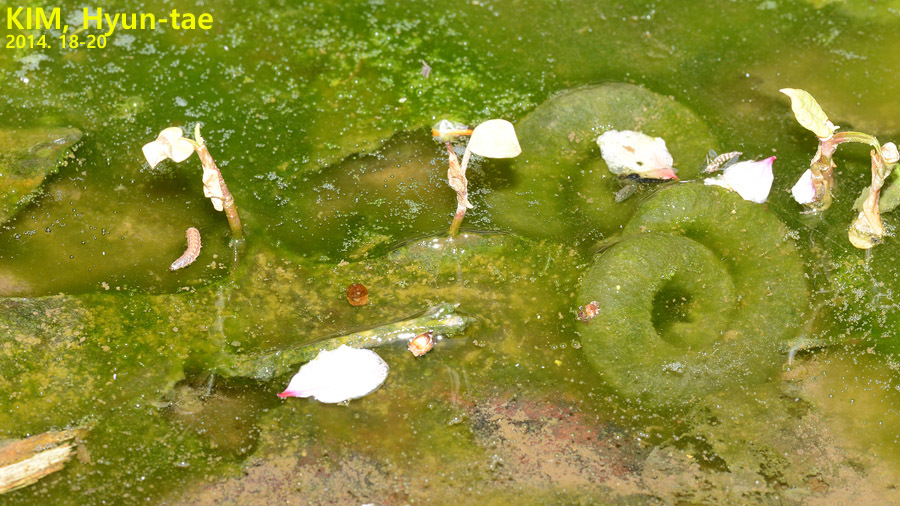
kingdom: Animalia
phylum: Chordata
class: Amphibia
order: Caudata
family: Hynobiidae
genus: Hynobius
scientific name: Hynobius leechii
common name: Gensan salamander
